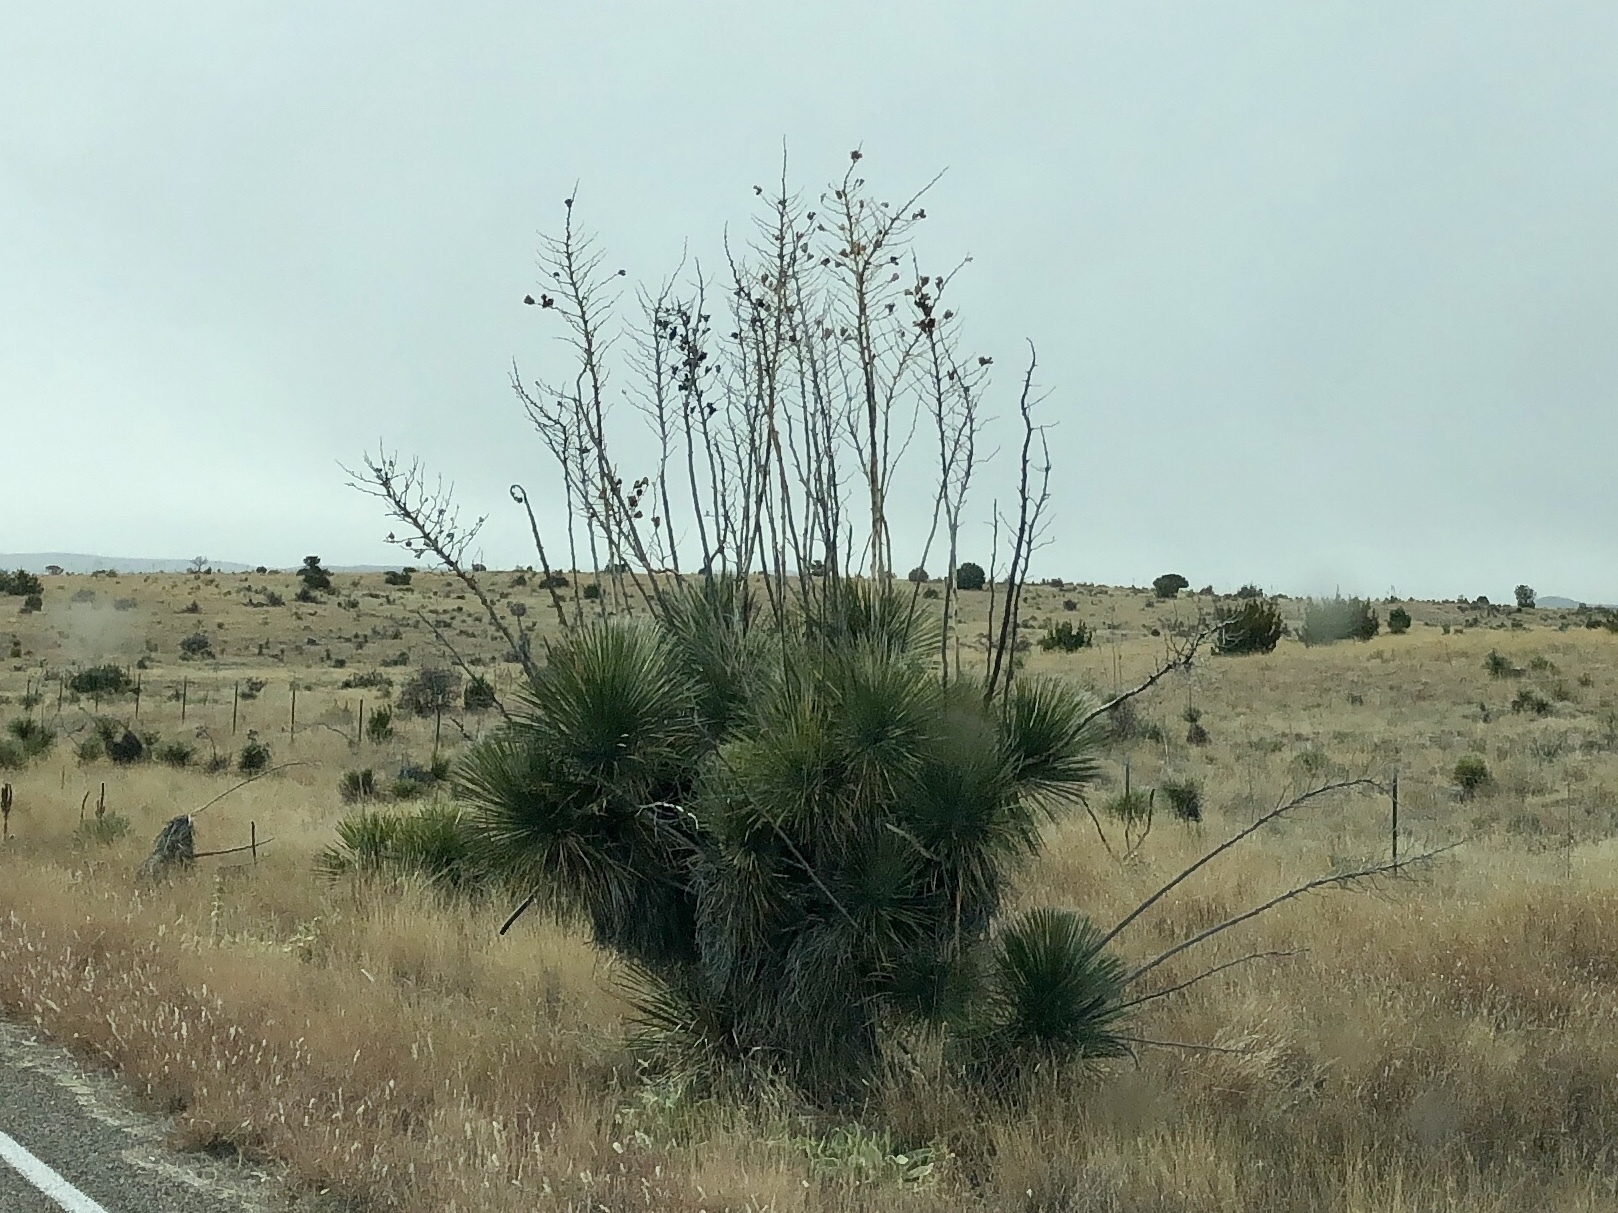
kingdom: Plantae
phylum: Tracheophyta
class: Liliopsida
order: Asparagales
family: Asparagaceae
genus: Yucca
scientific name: Yucca elata
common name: Palmella
